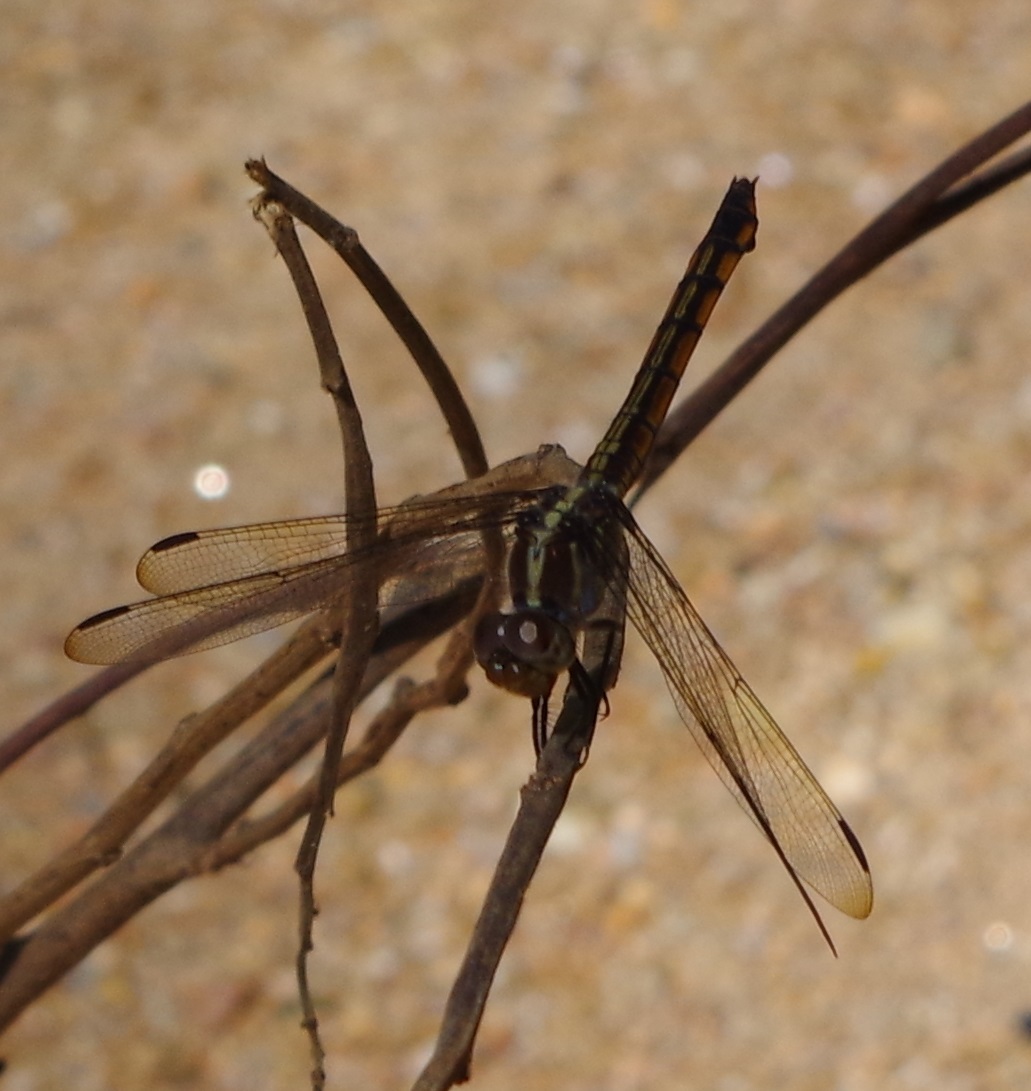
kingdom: Animalia
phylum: Arthropoda
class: Insecta
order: Odonata
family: Libellulidae
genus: Potamarcha
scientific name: Potamarcha congener
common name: Blue chaser
